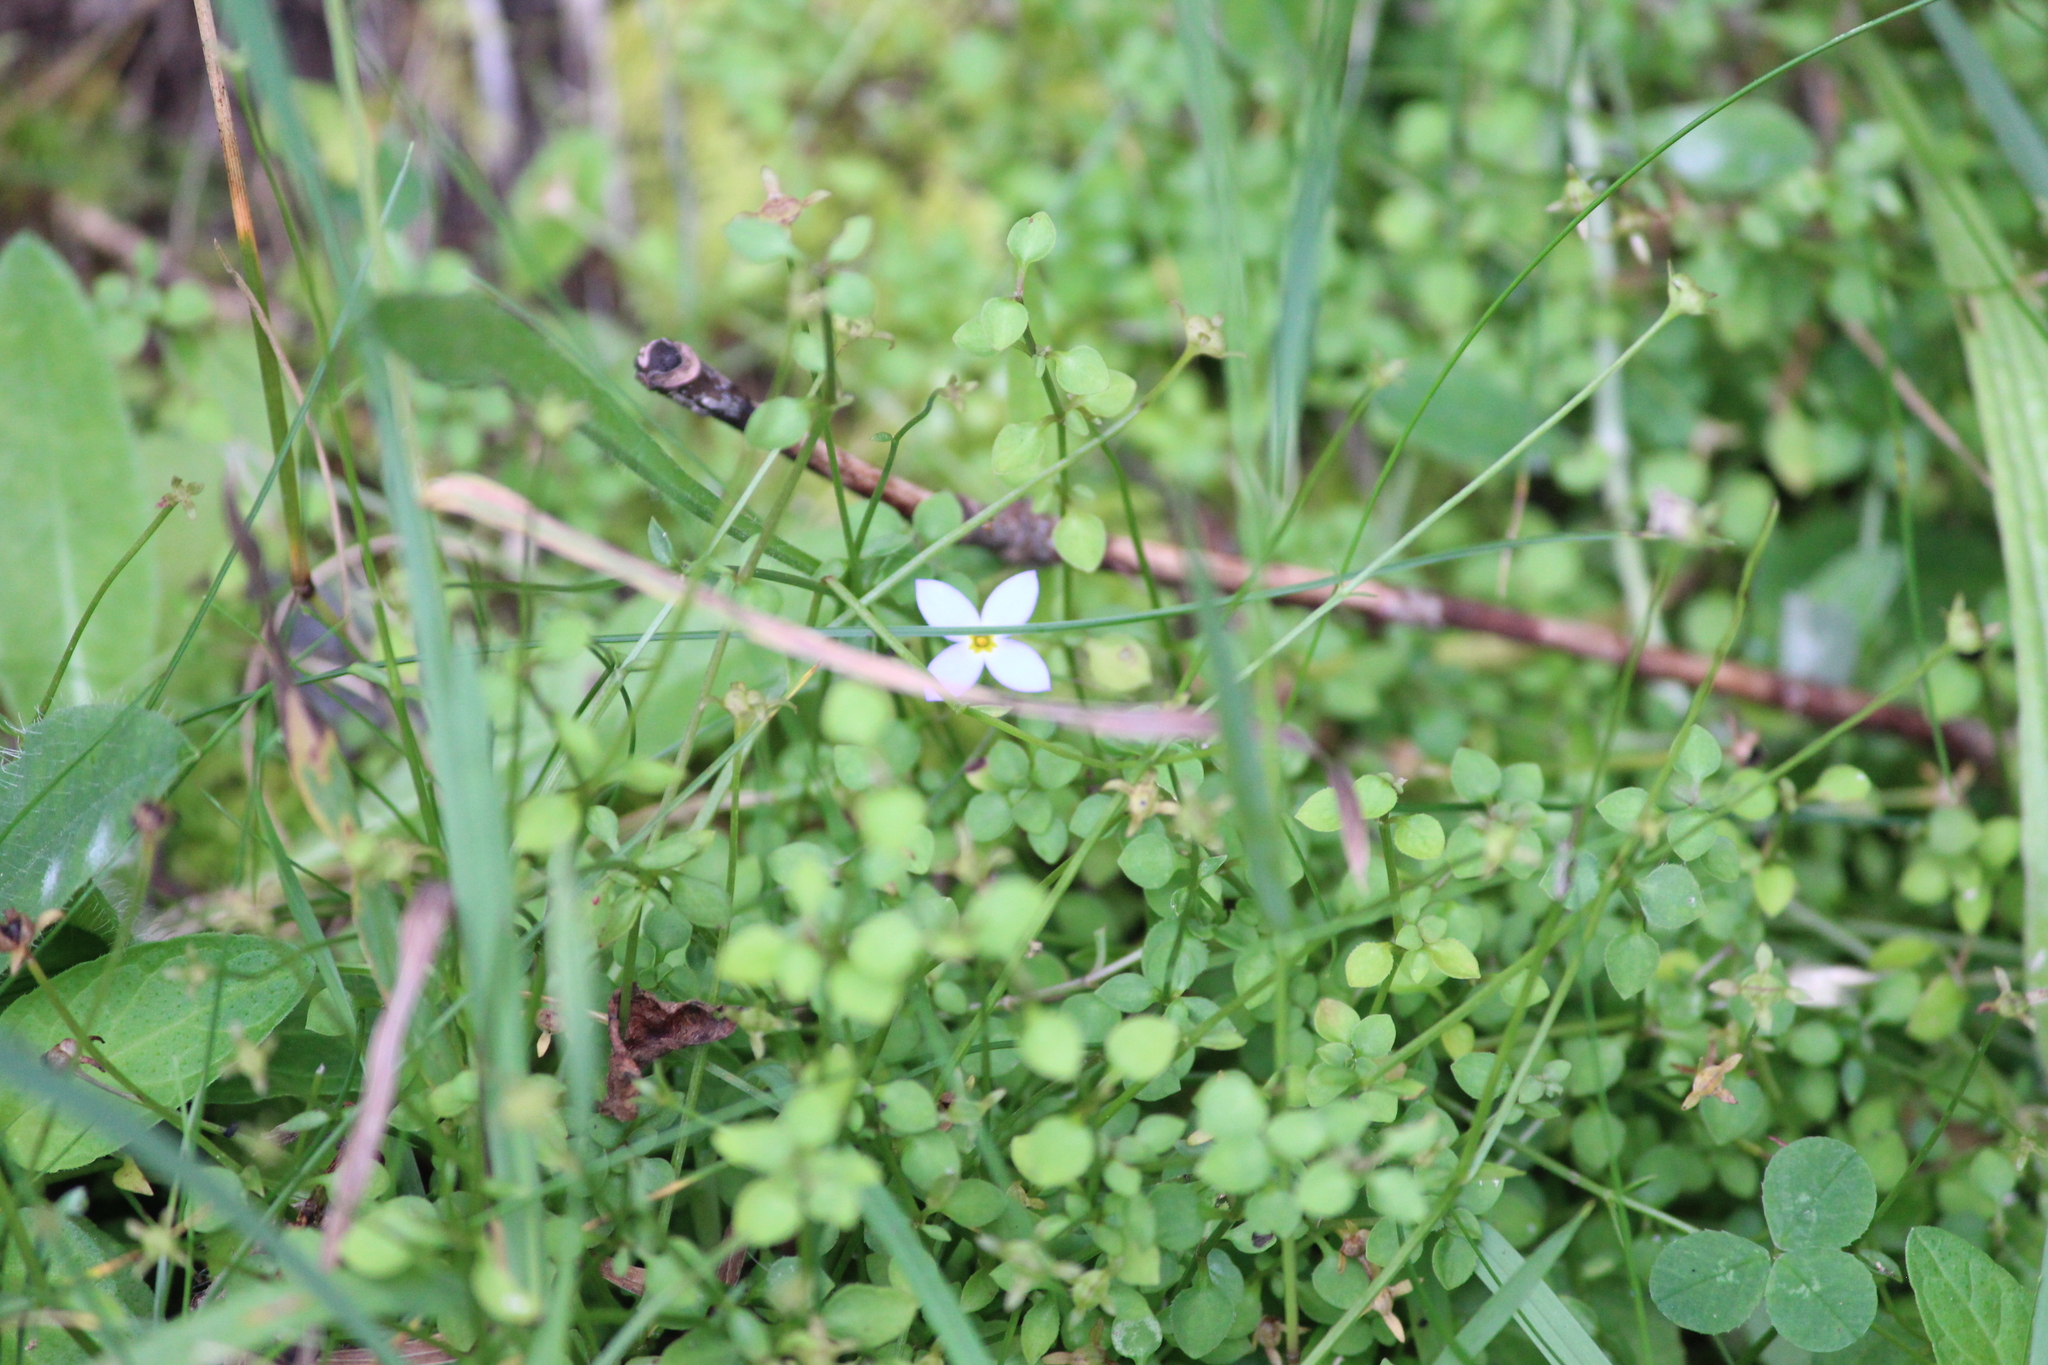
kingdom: Plantae
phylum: Tracheophyta
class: Magnoliopsida
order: Gentianales
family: Rubiaceae
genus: Houstonia
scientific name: Houstonia serpyllifolia
